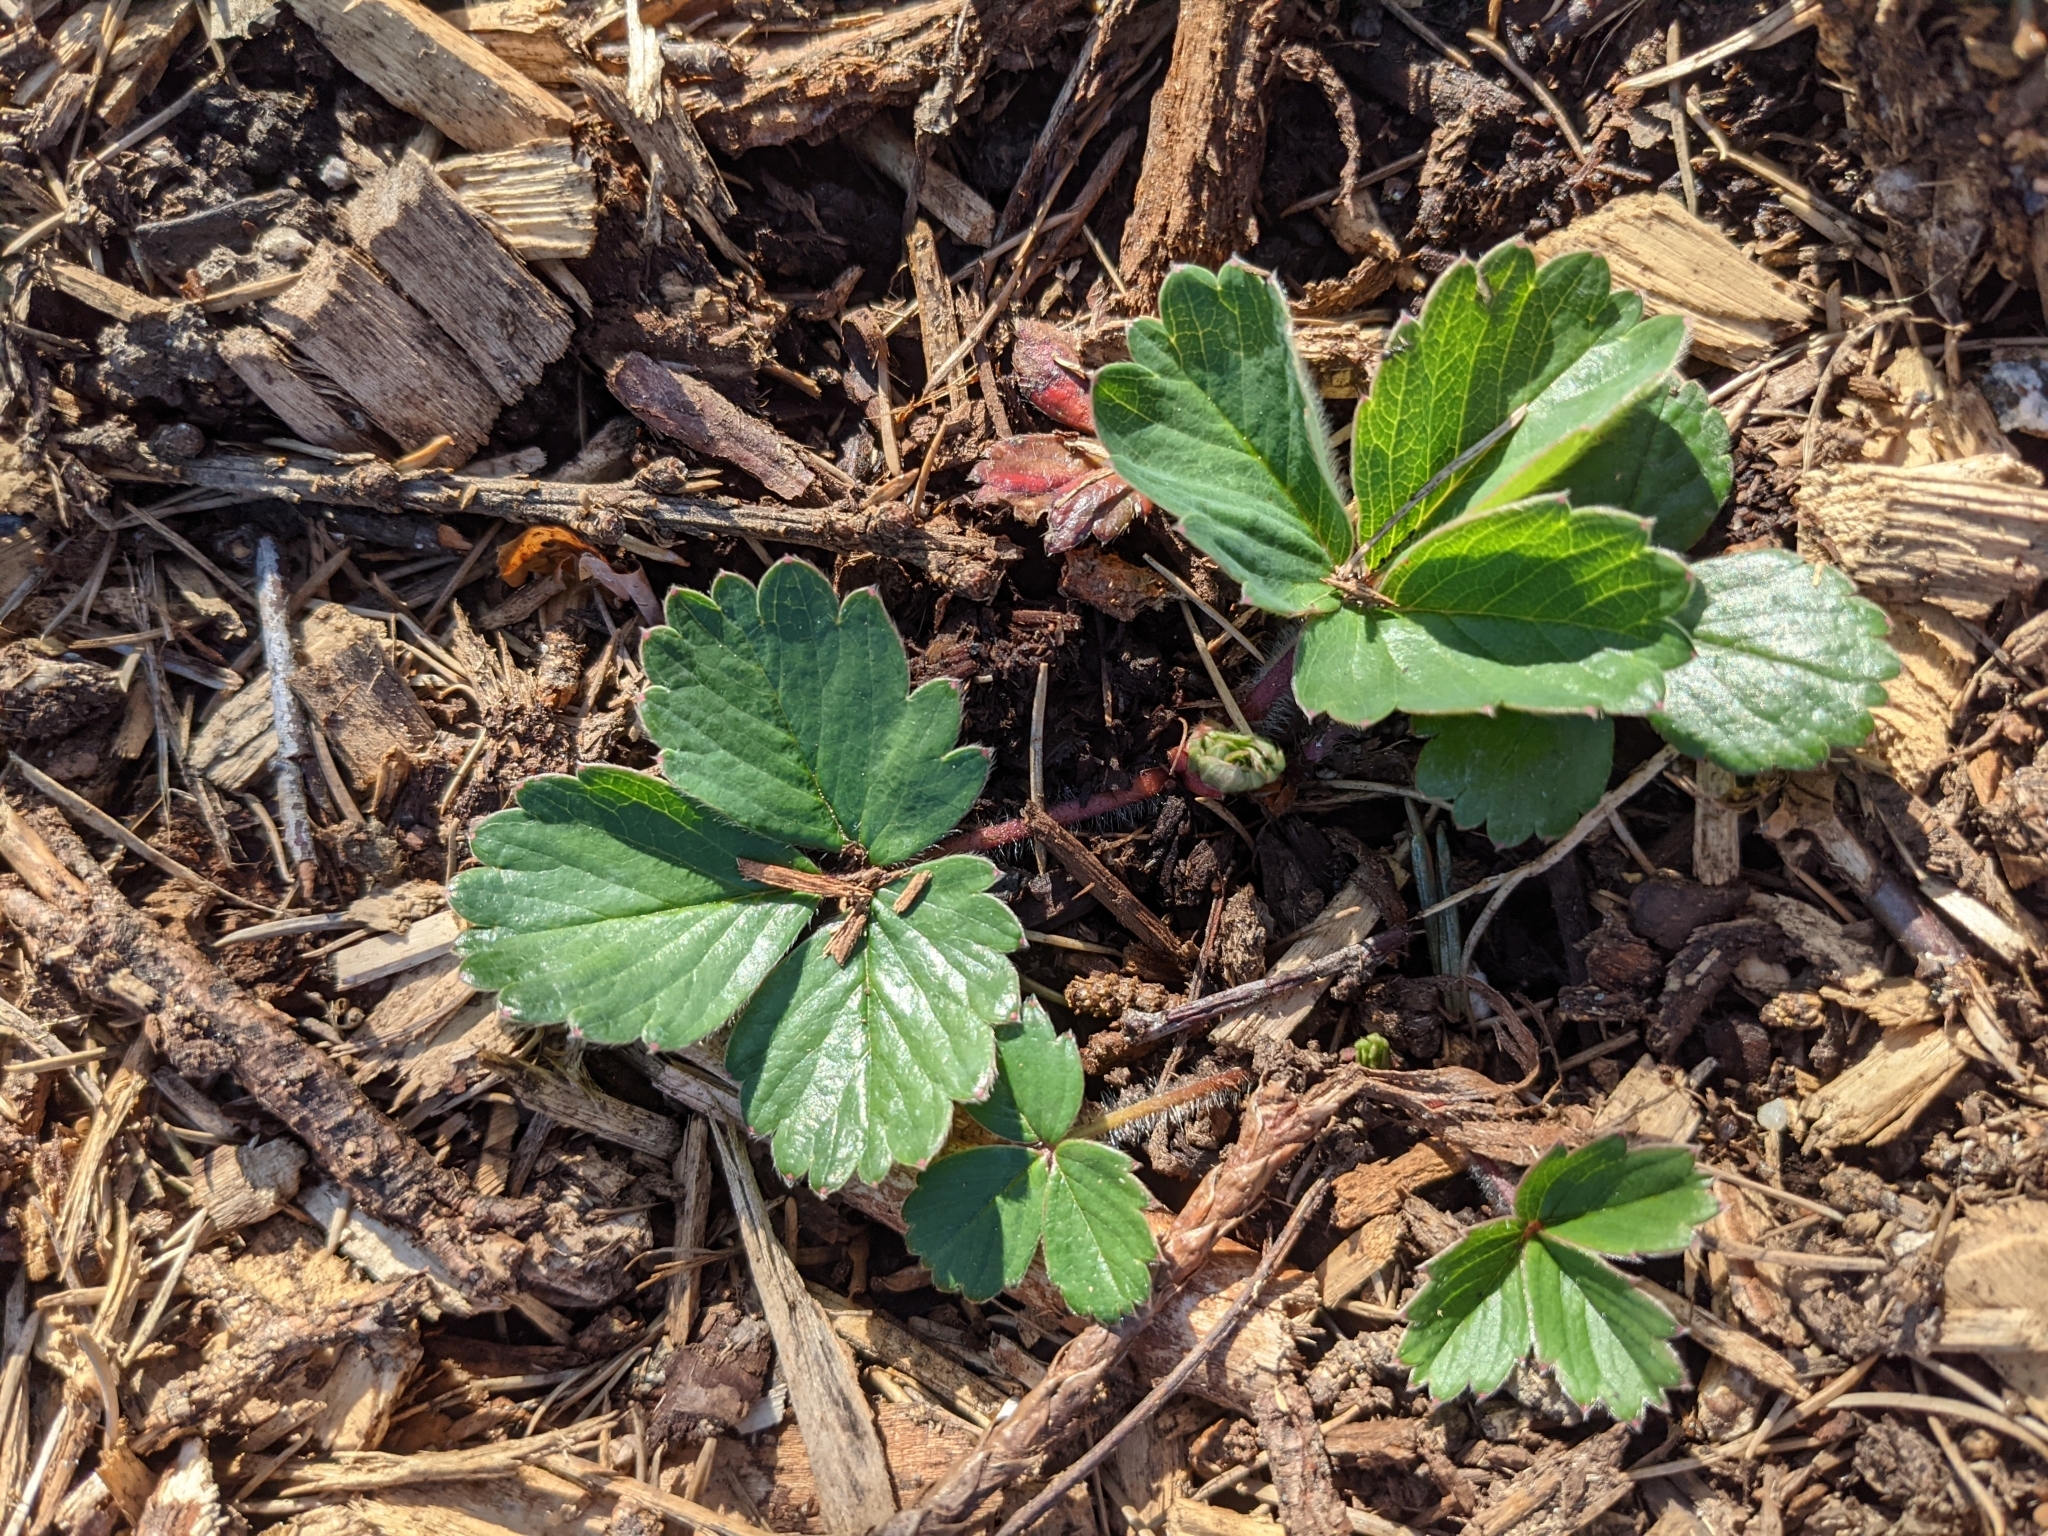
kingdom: Plantae
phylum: Tracheophyta
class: Magnoliopsida
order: Rosales
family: Rosaceae
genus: Fragaria
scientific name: Fragaria chiloensis
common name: Beach strawberry
